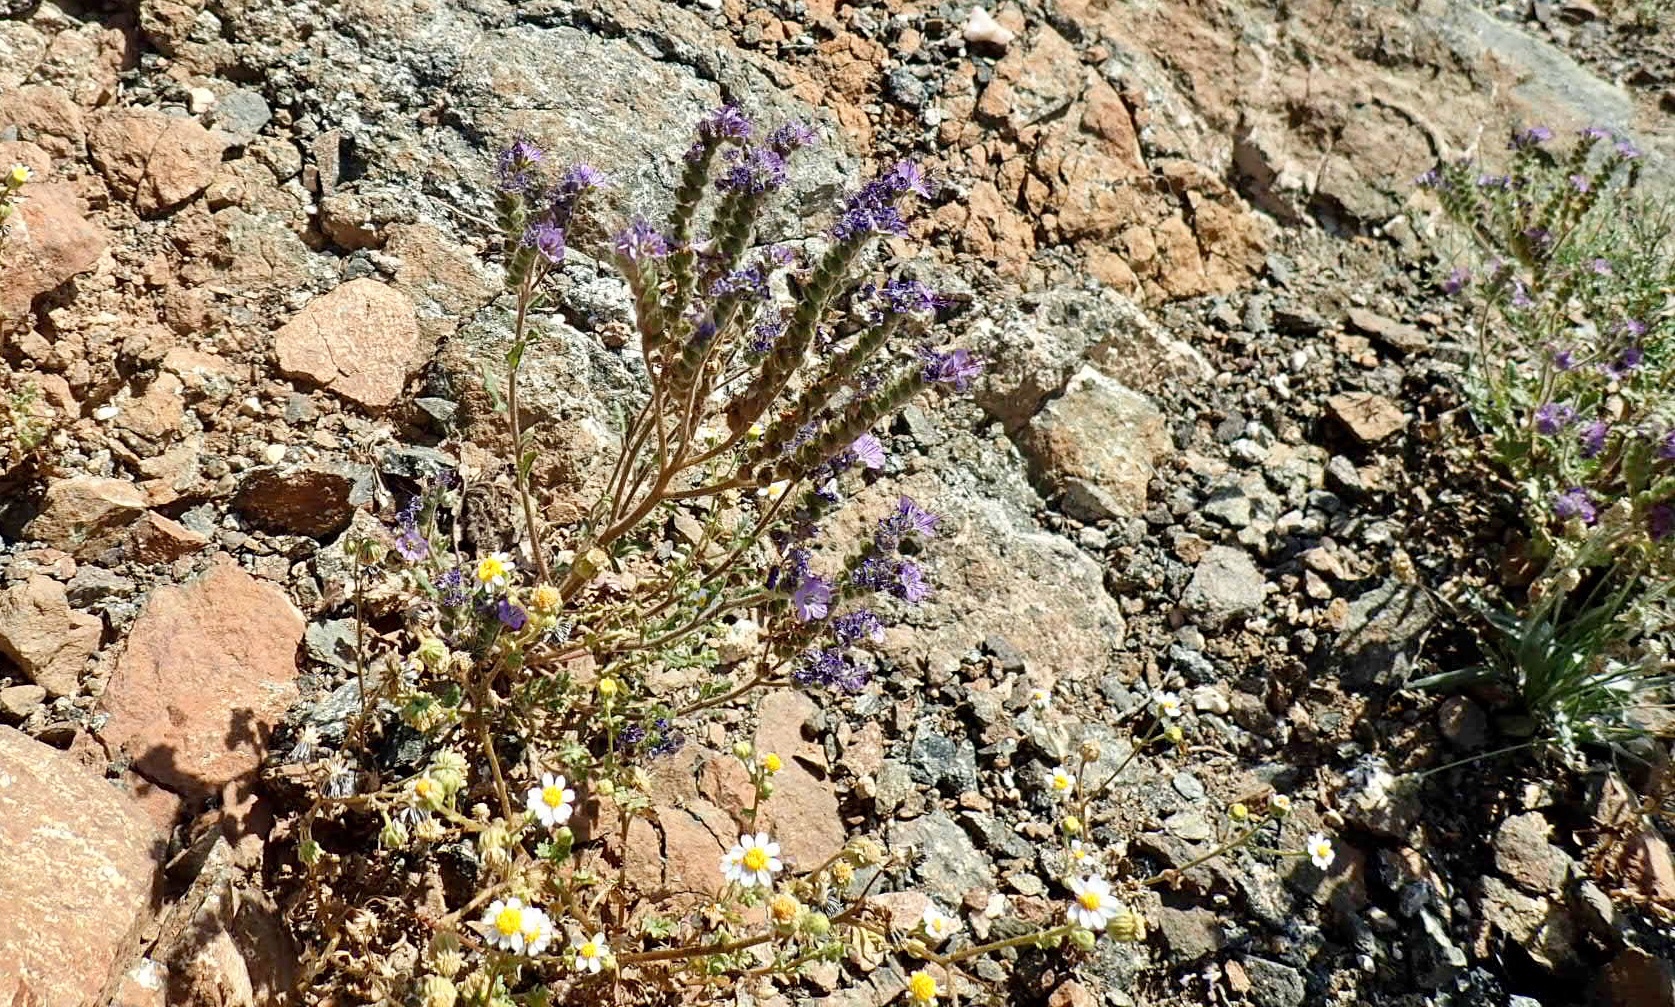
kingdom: Plantae
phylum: Tracheophyta
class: Magnoliopsida
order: Boraginales
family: Hydrophyllaceae
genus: Phacelia
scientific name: Phacelia crenulata
